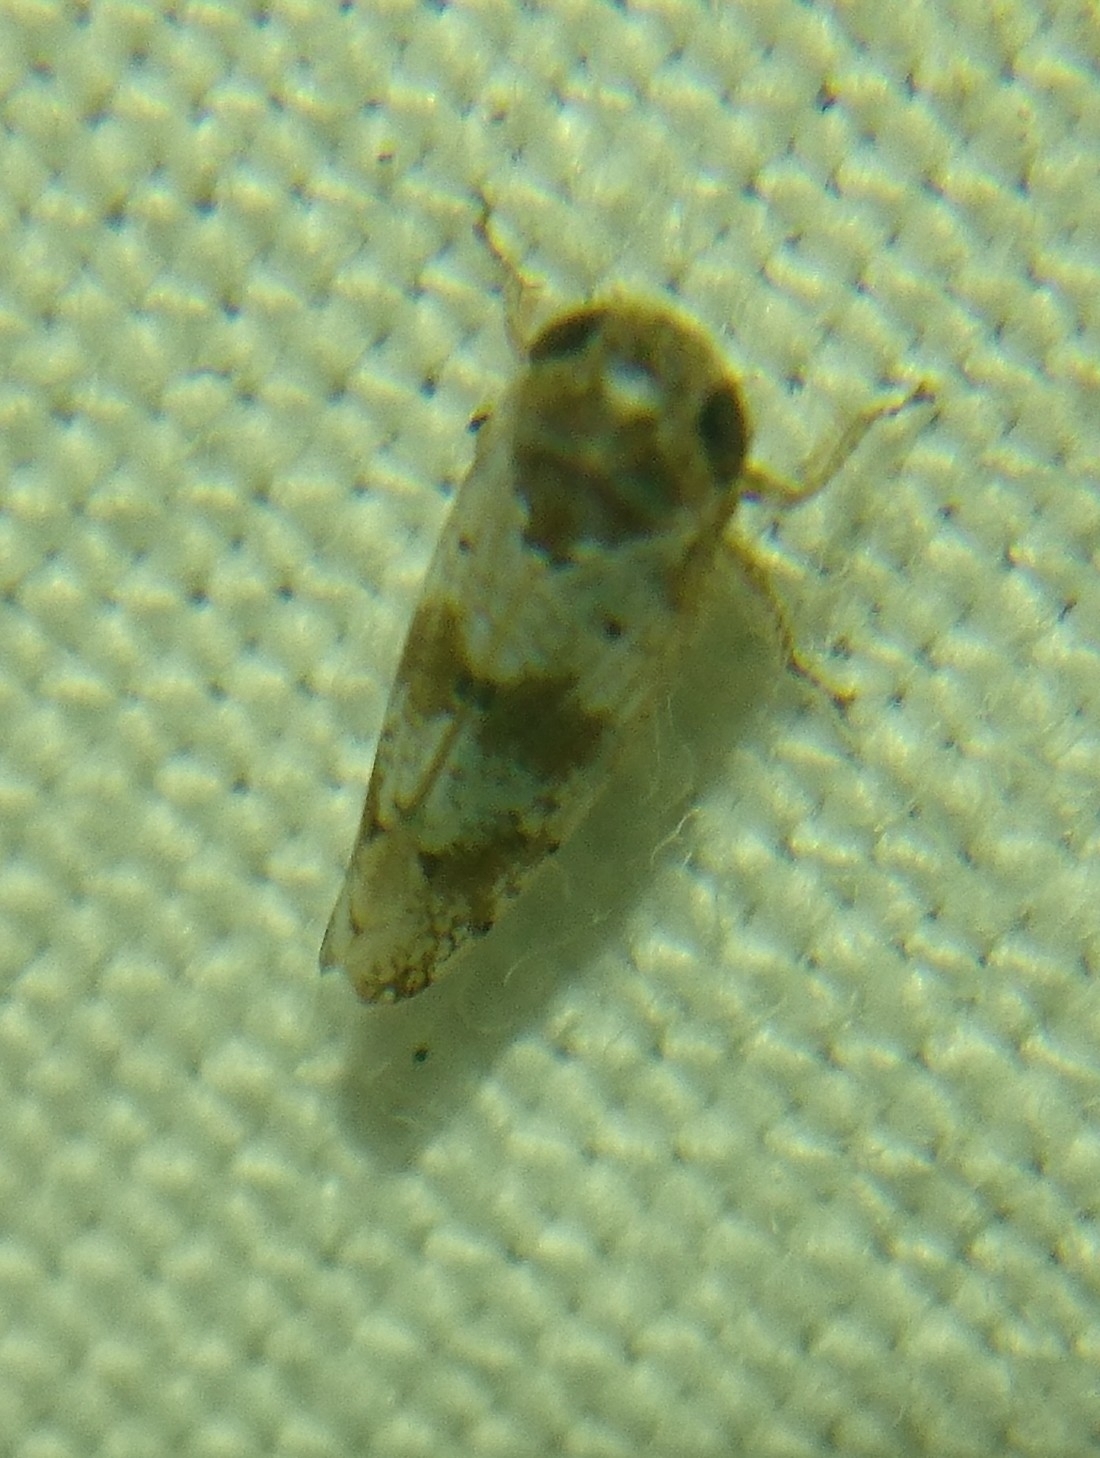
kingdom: Animalia
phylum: Arthropoda
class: Insecta
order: Hemiptera
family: Cicadellidae
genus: Pendarus
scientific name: Pendarus auroalbus
